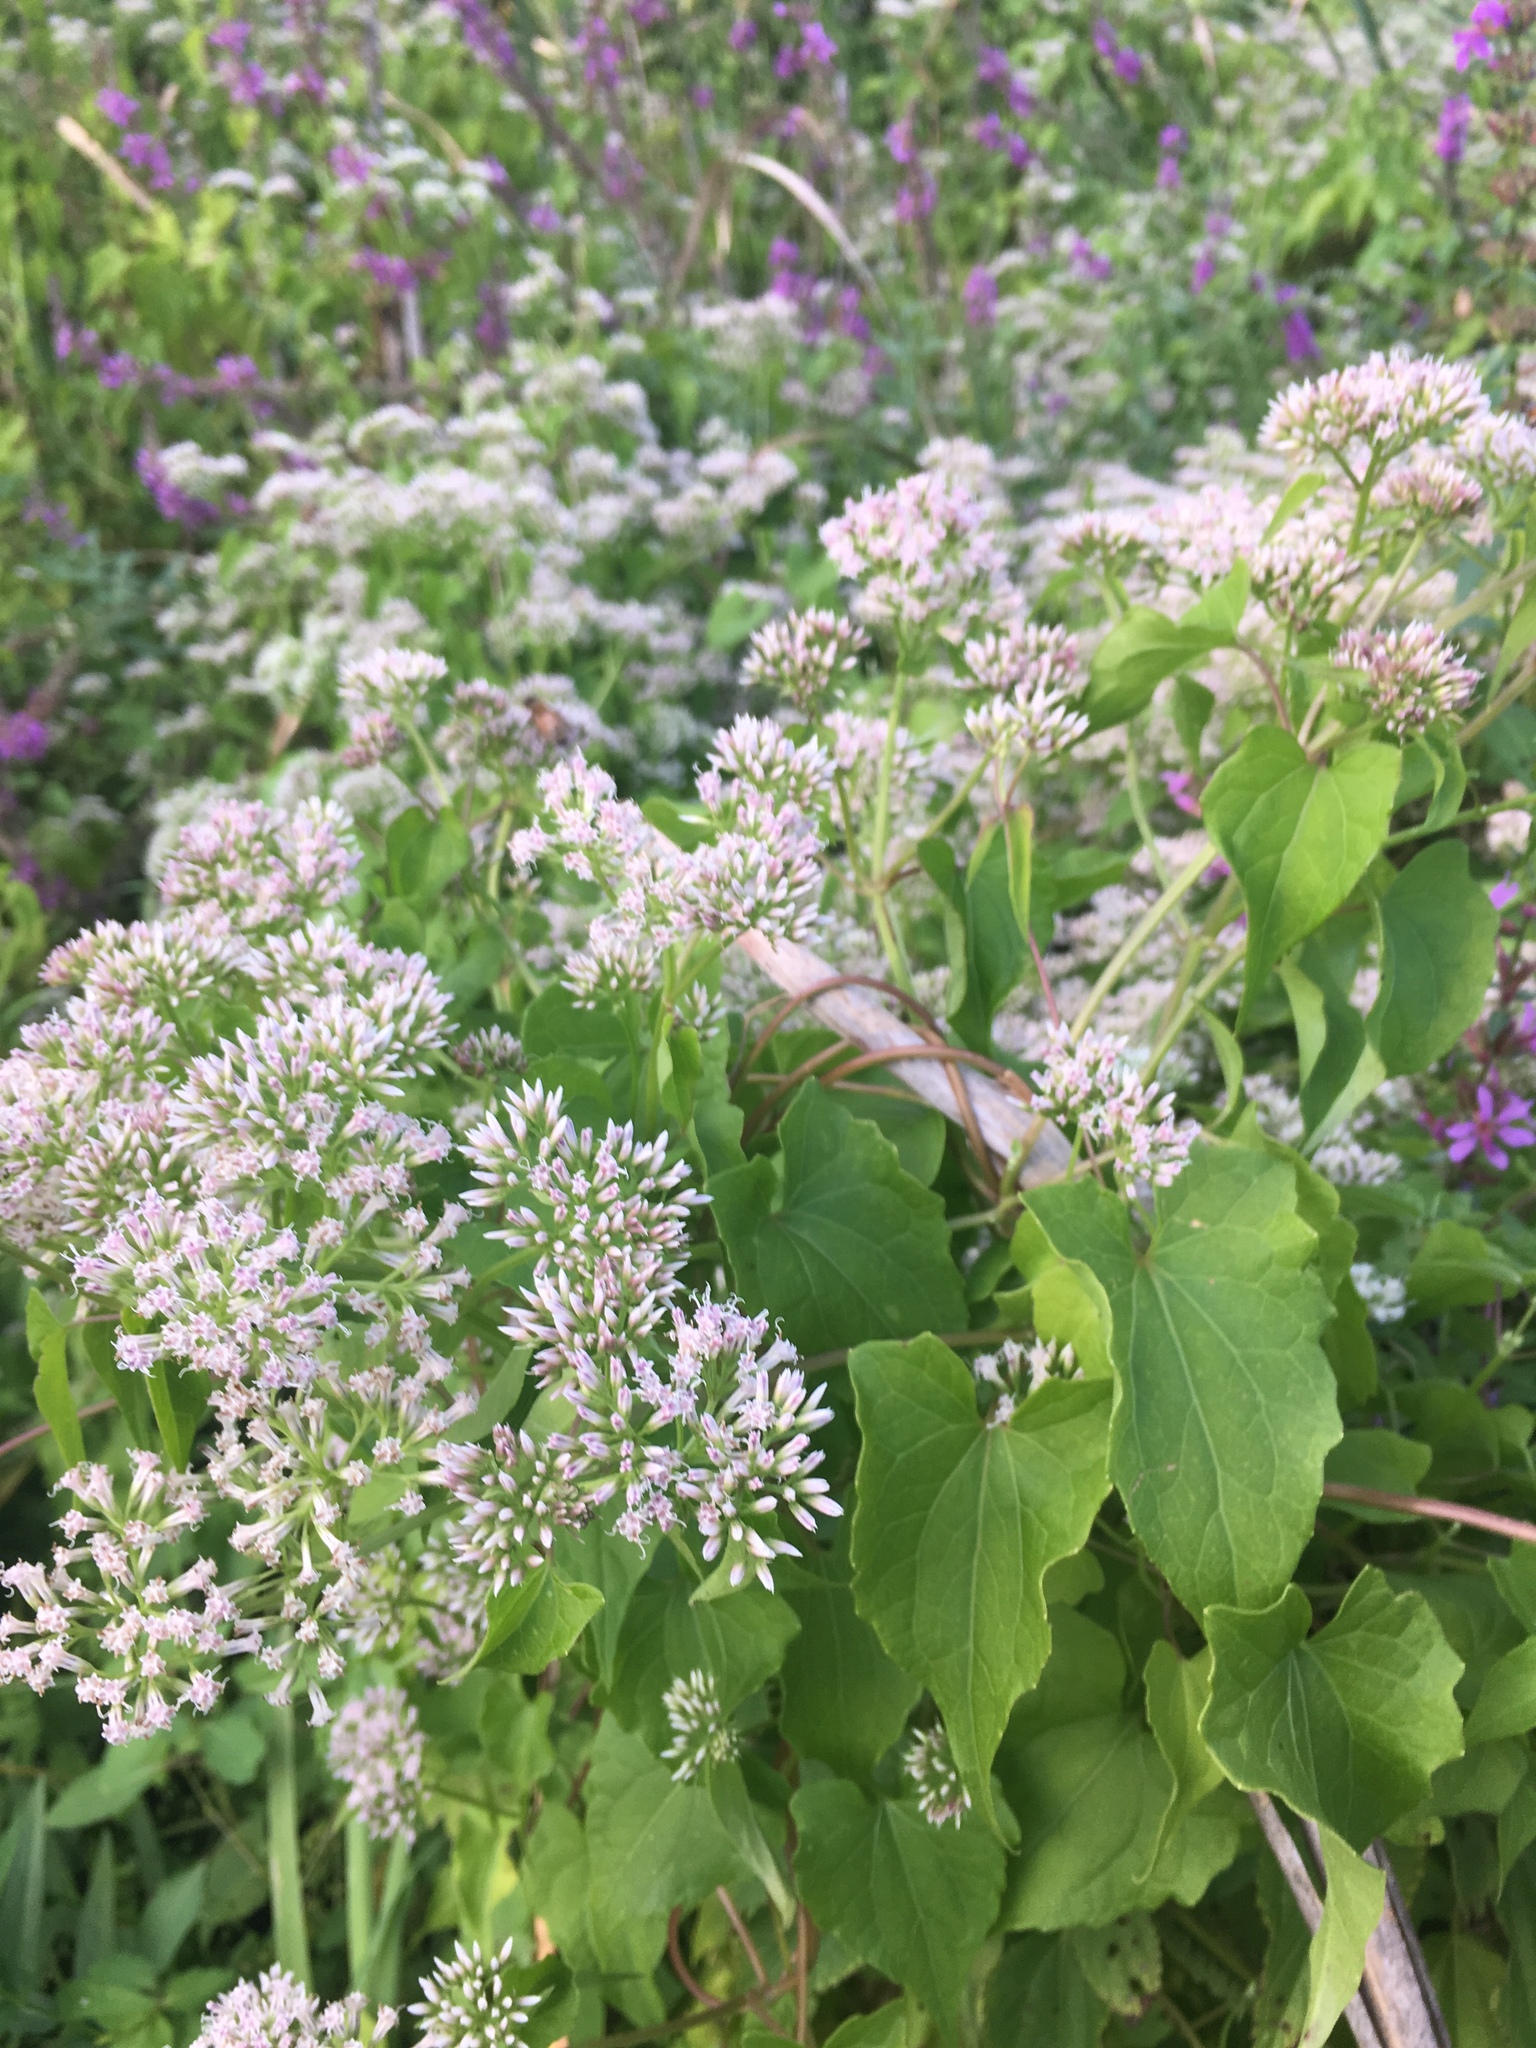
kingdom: Plantae
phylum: Tracheophyta
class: Magnoliopsida
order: Asterales
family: Asteraceae
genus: Mikania
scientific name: Mikania scandens
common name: Climbing hempvine
